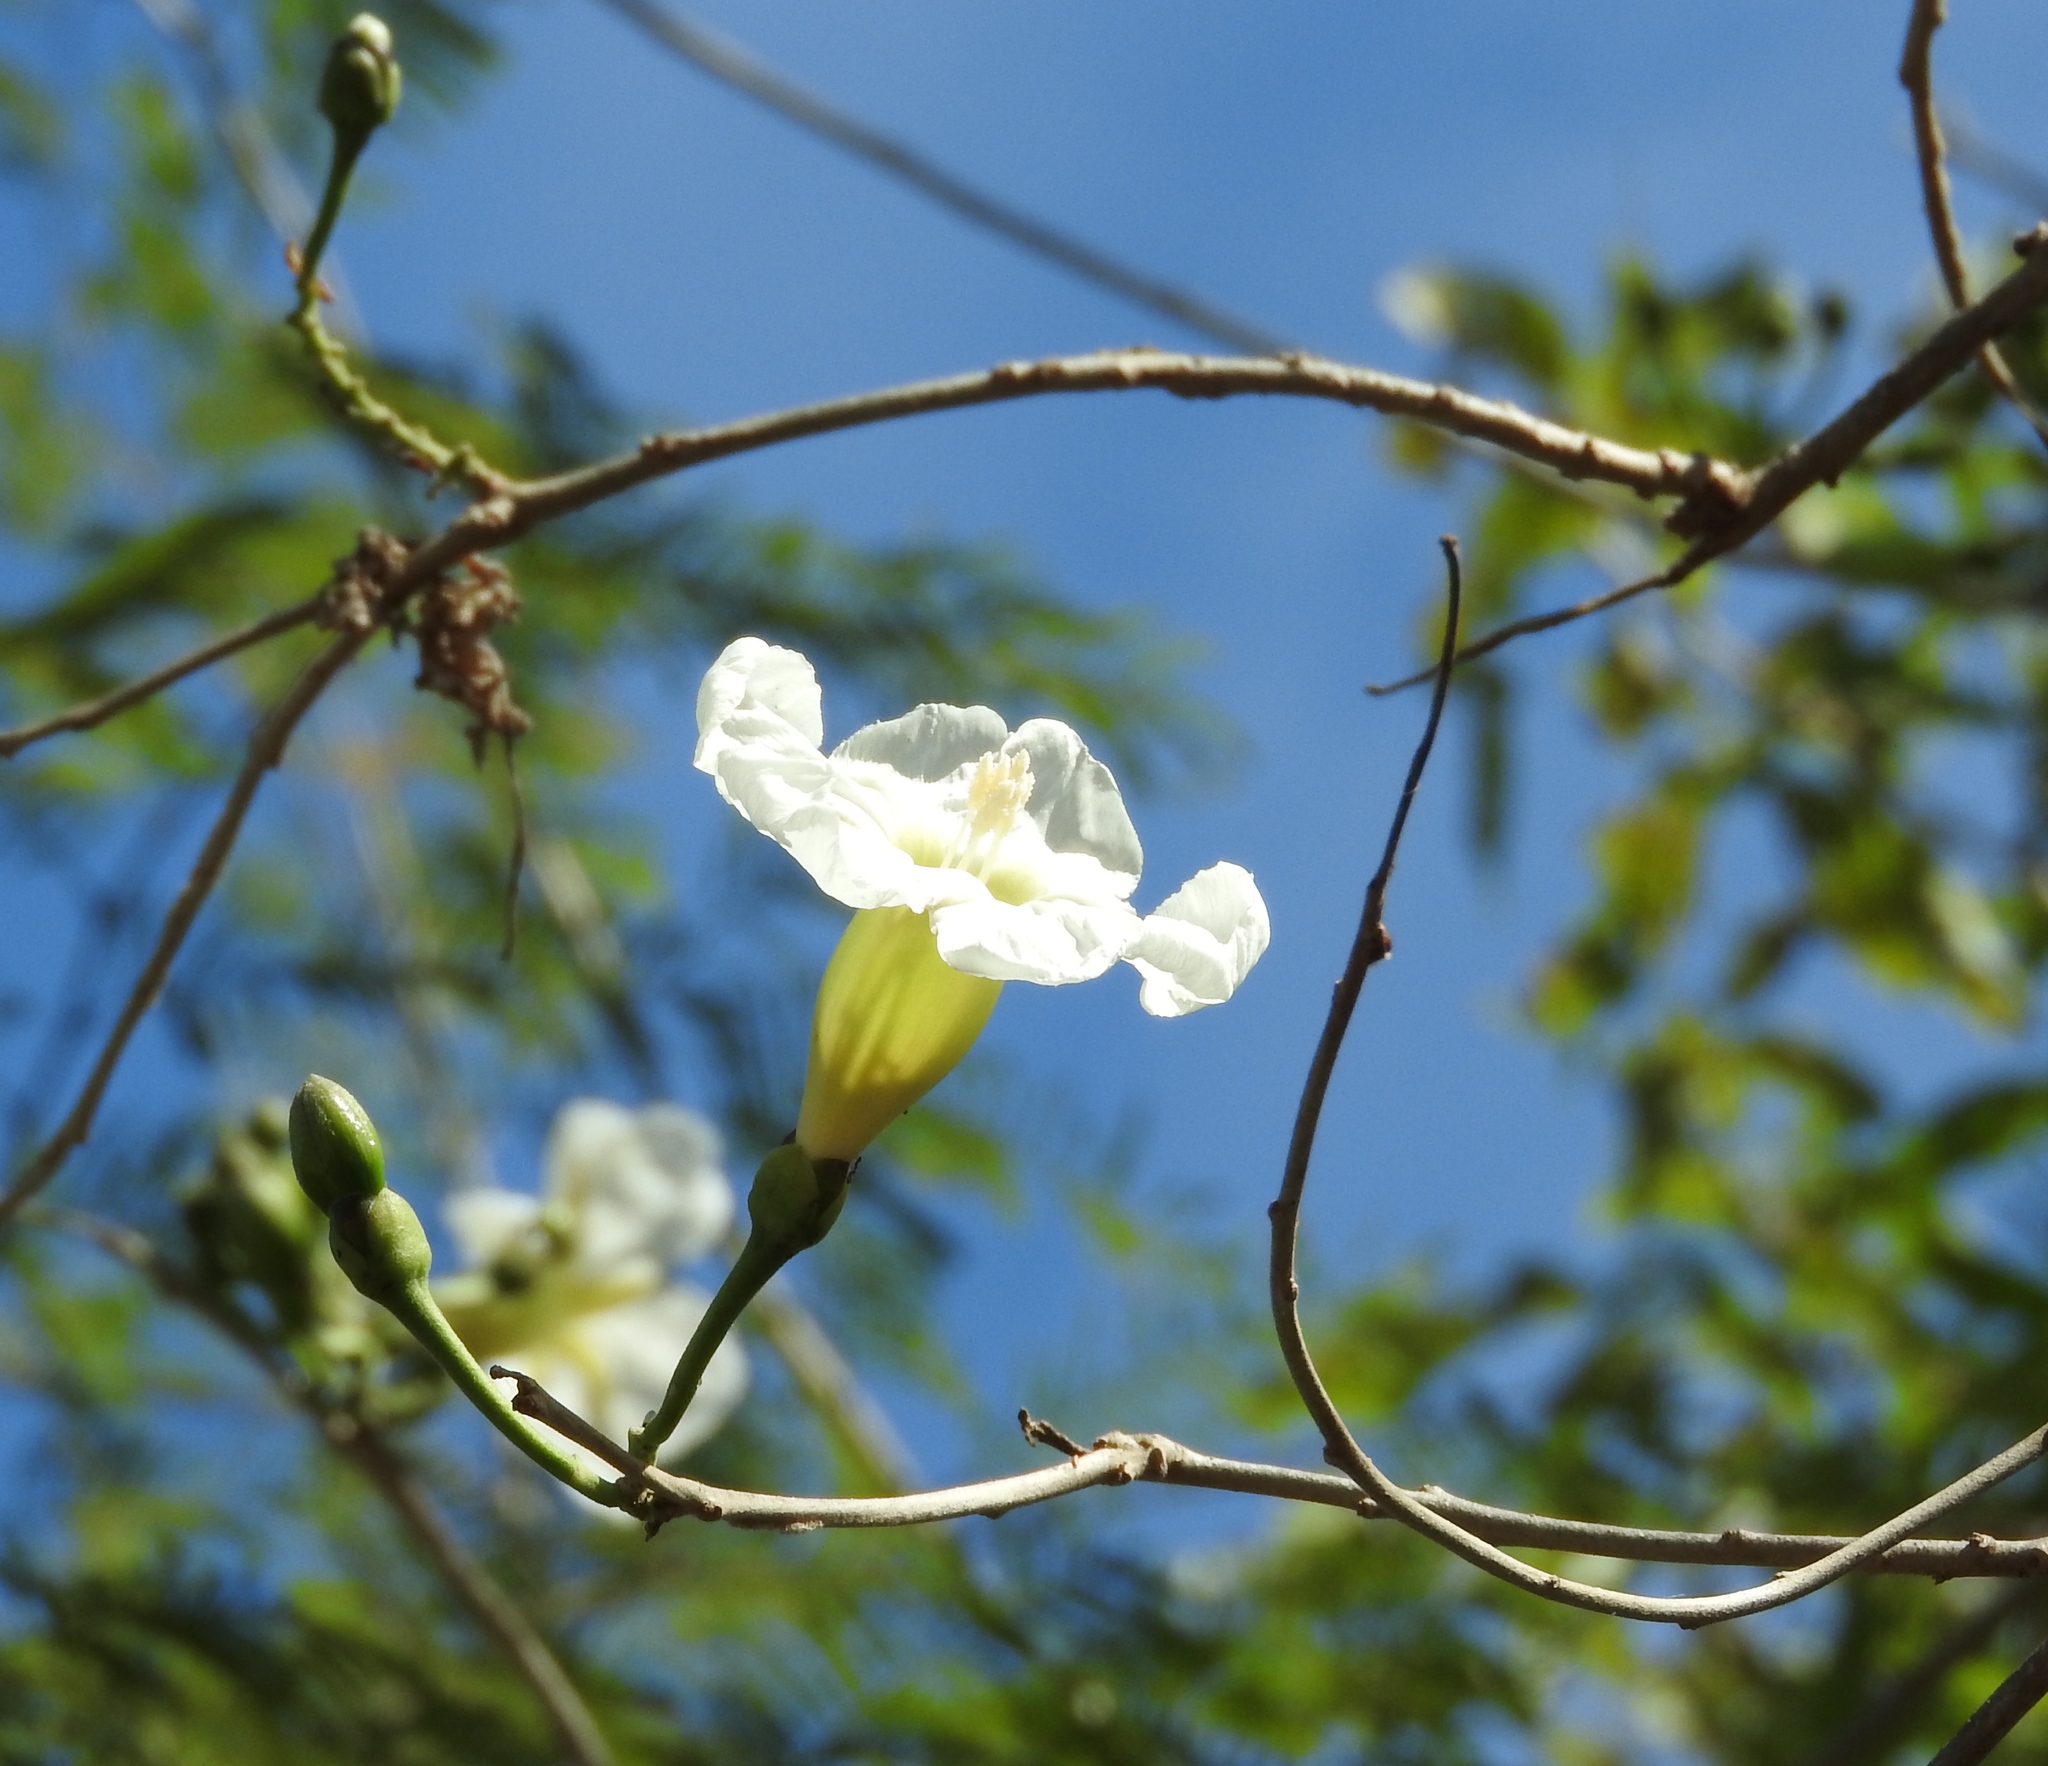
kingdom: Plantae
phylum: Tracheophyta
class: Magnoliopsida
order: Solanales
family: Convolvulaceae
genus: Ipomoea
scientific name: Ipomoea arborescens
